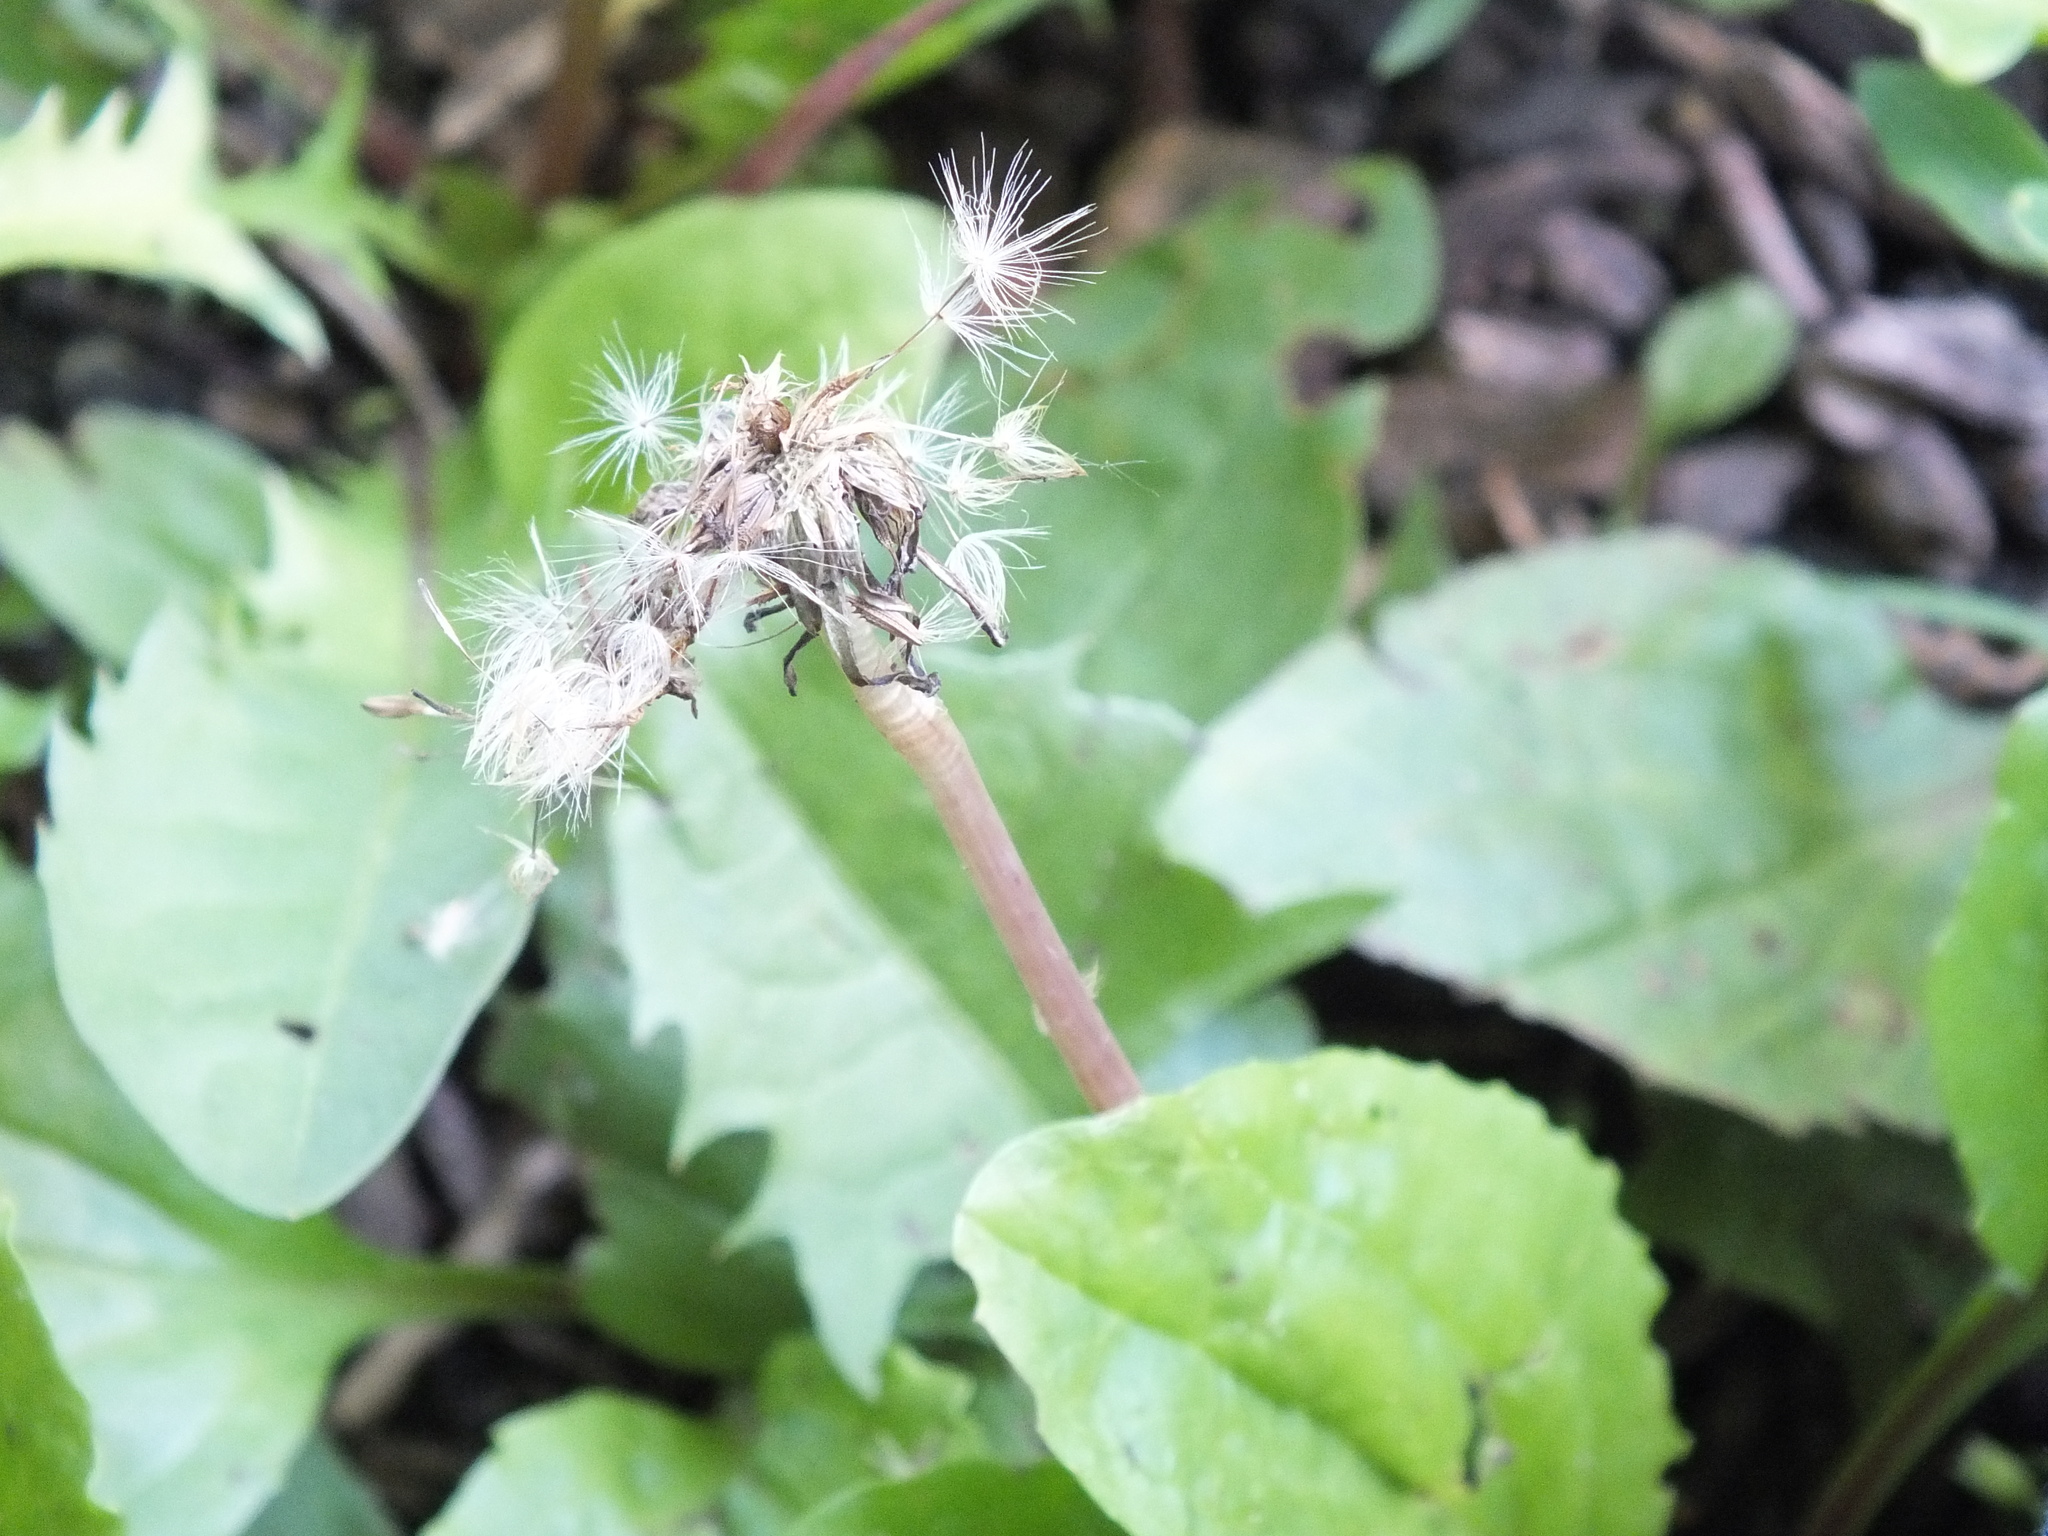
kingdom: Plantae
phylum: Tracheophyta
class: Magnoliopsida
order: Asterales
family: Asteraceae
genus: Taraxacum
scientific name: Taraxacum officinale
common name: Common dandelion
